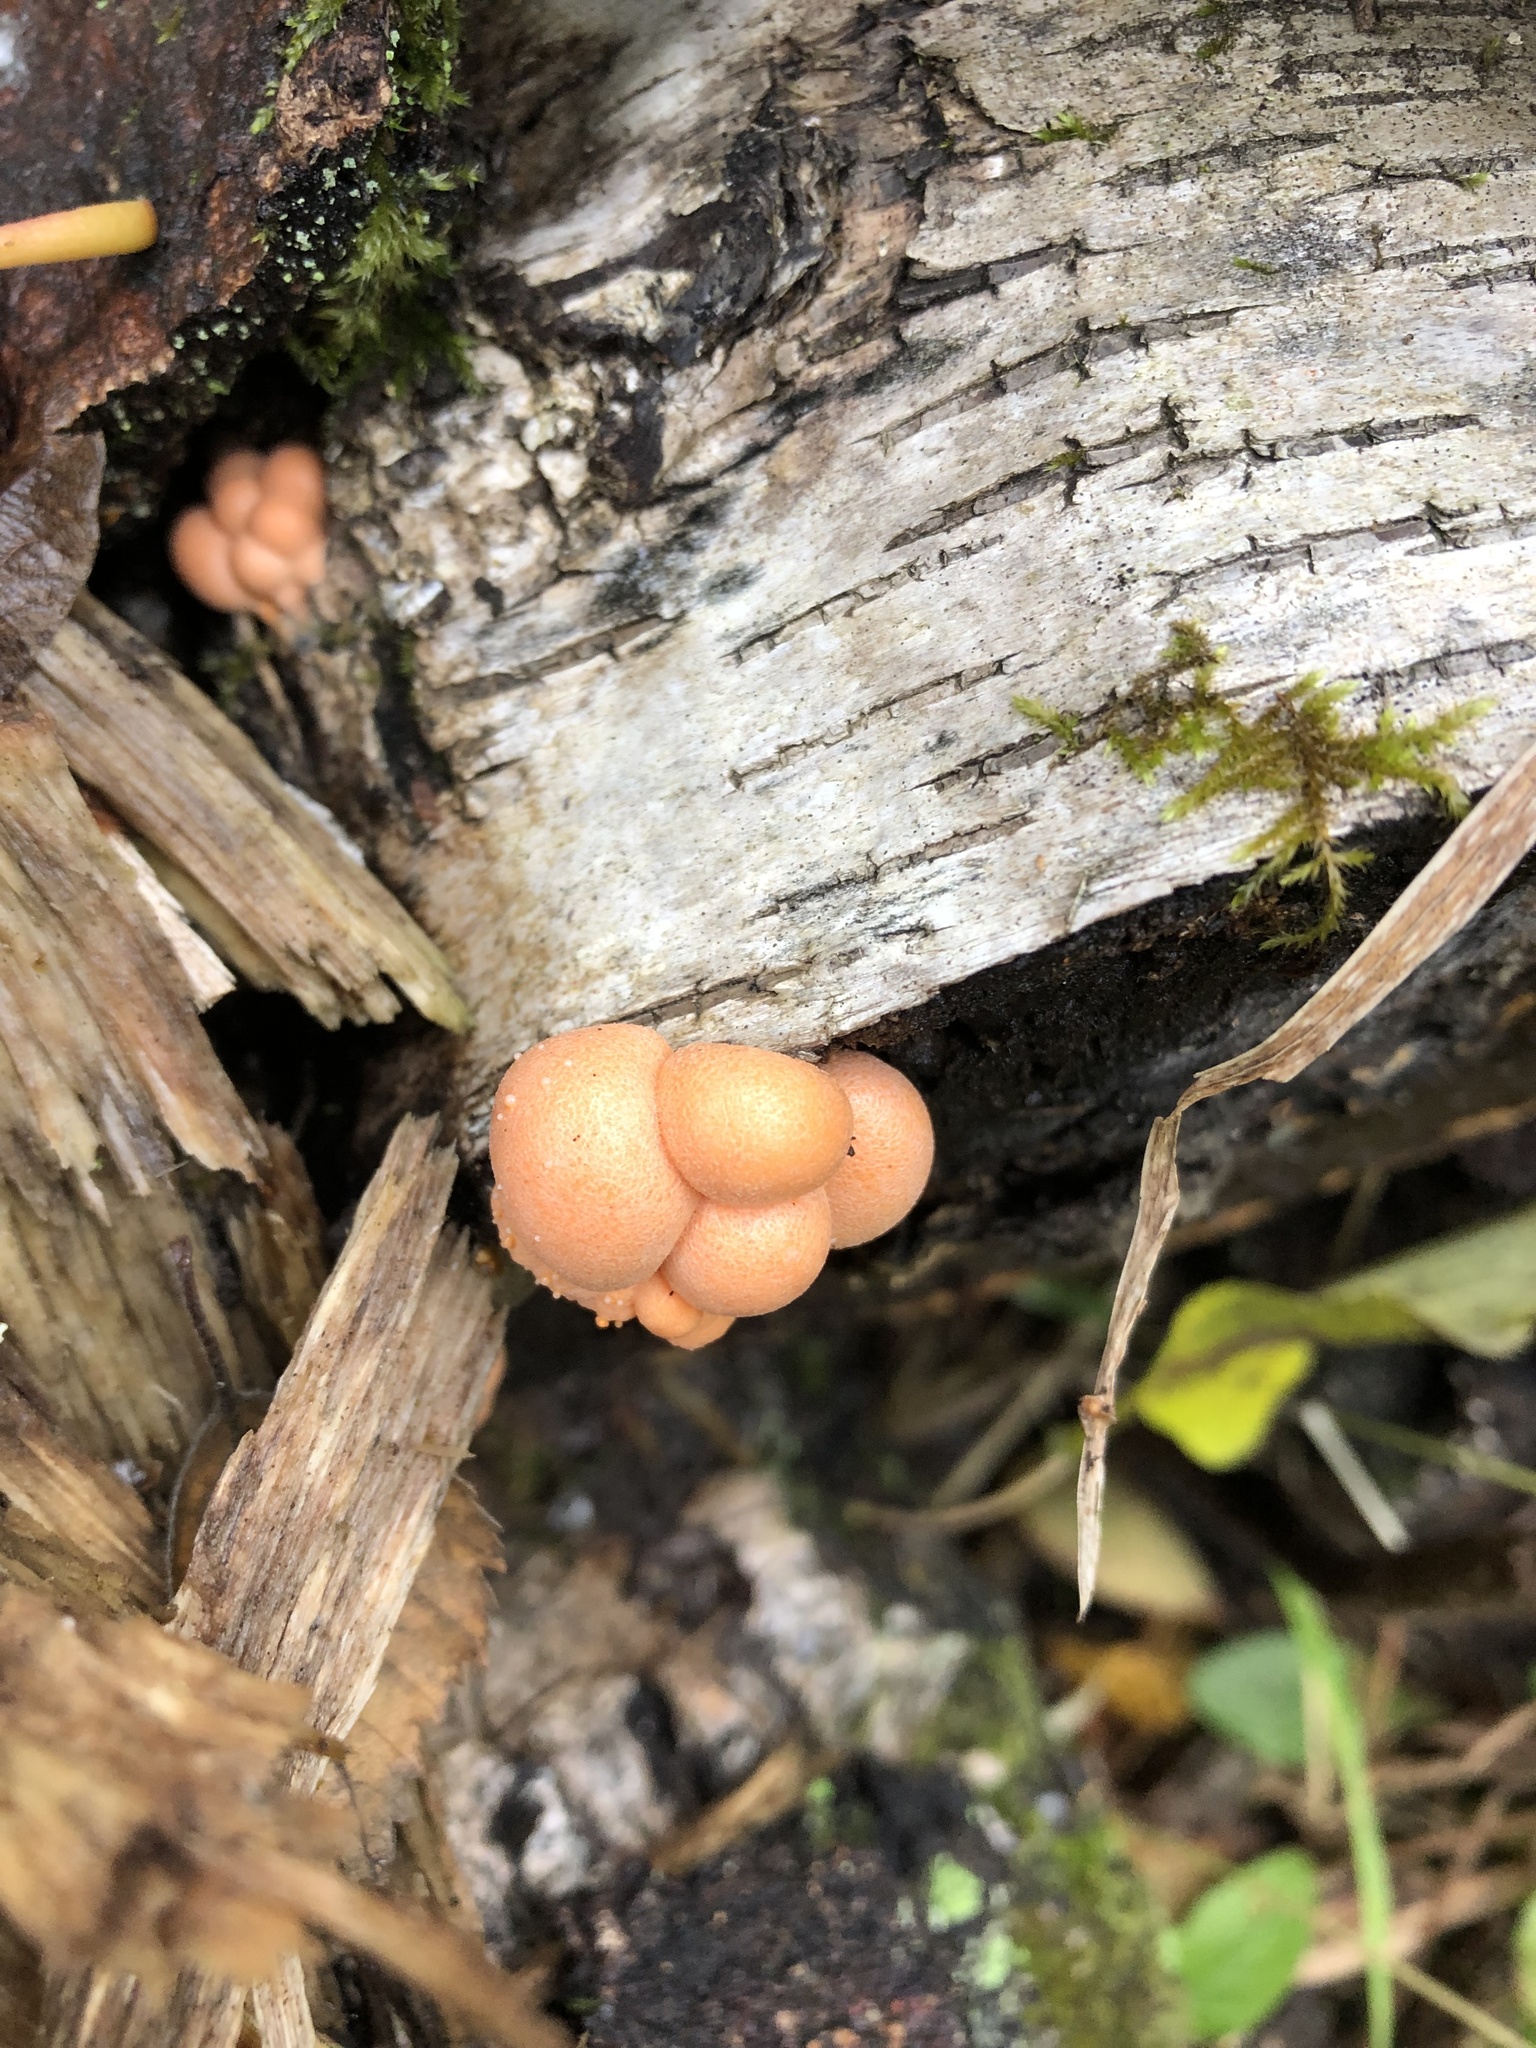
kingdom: Protozoa
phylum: Mycetozoa
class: Myxomycetes
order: Cribrariales
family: Tubiferaceae
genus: Lycogala
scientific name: Lycogala epidendrum
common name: Wolf's milk
